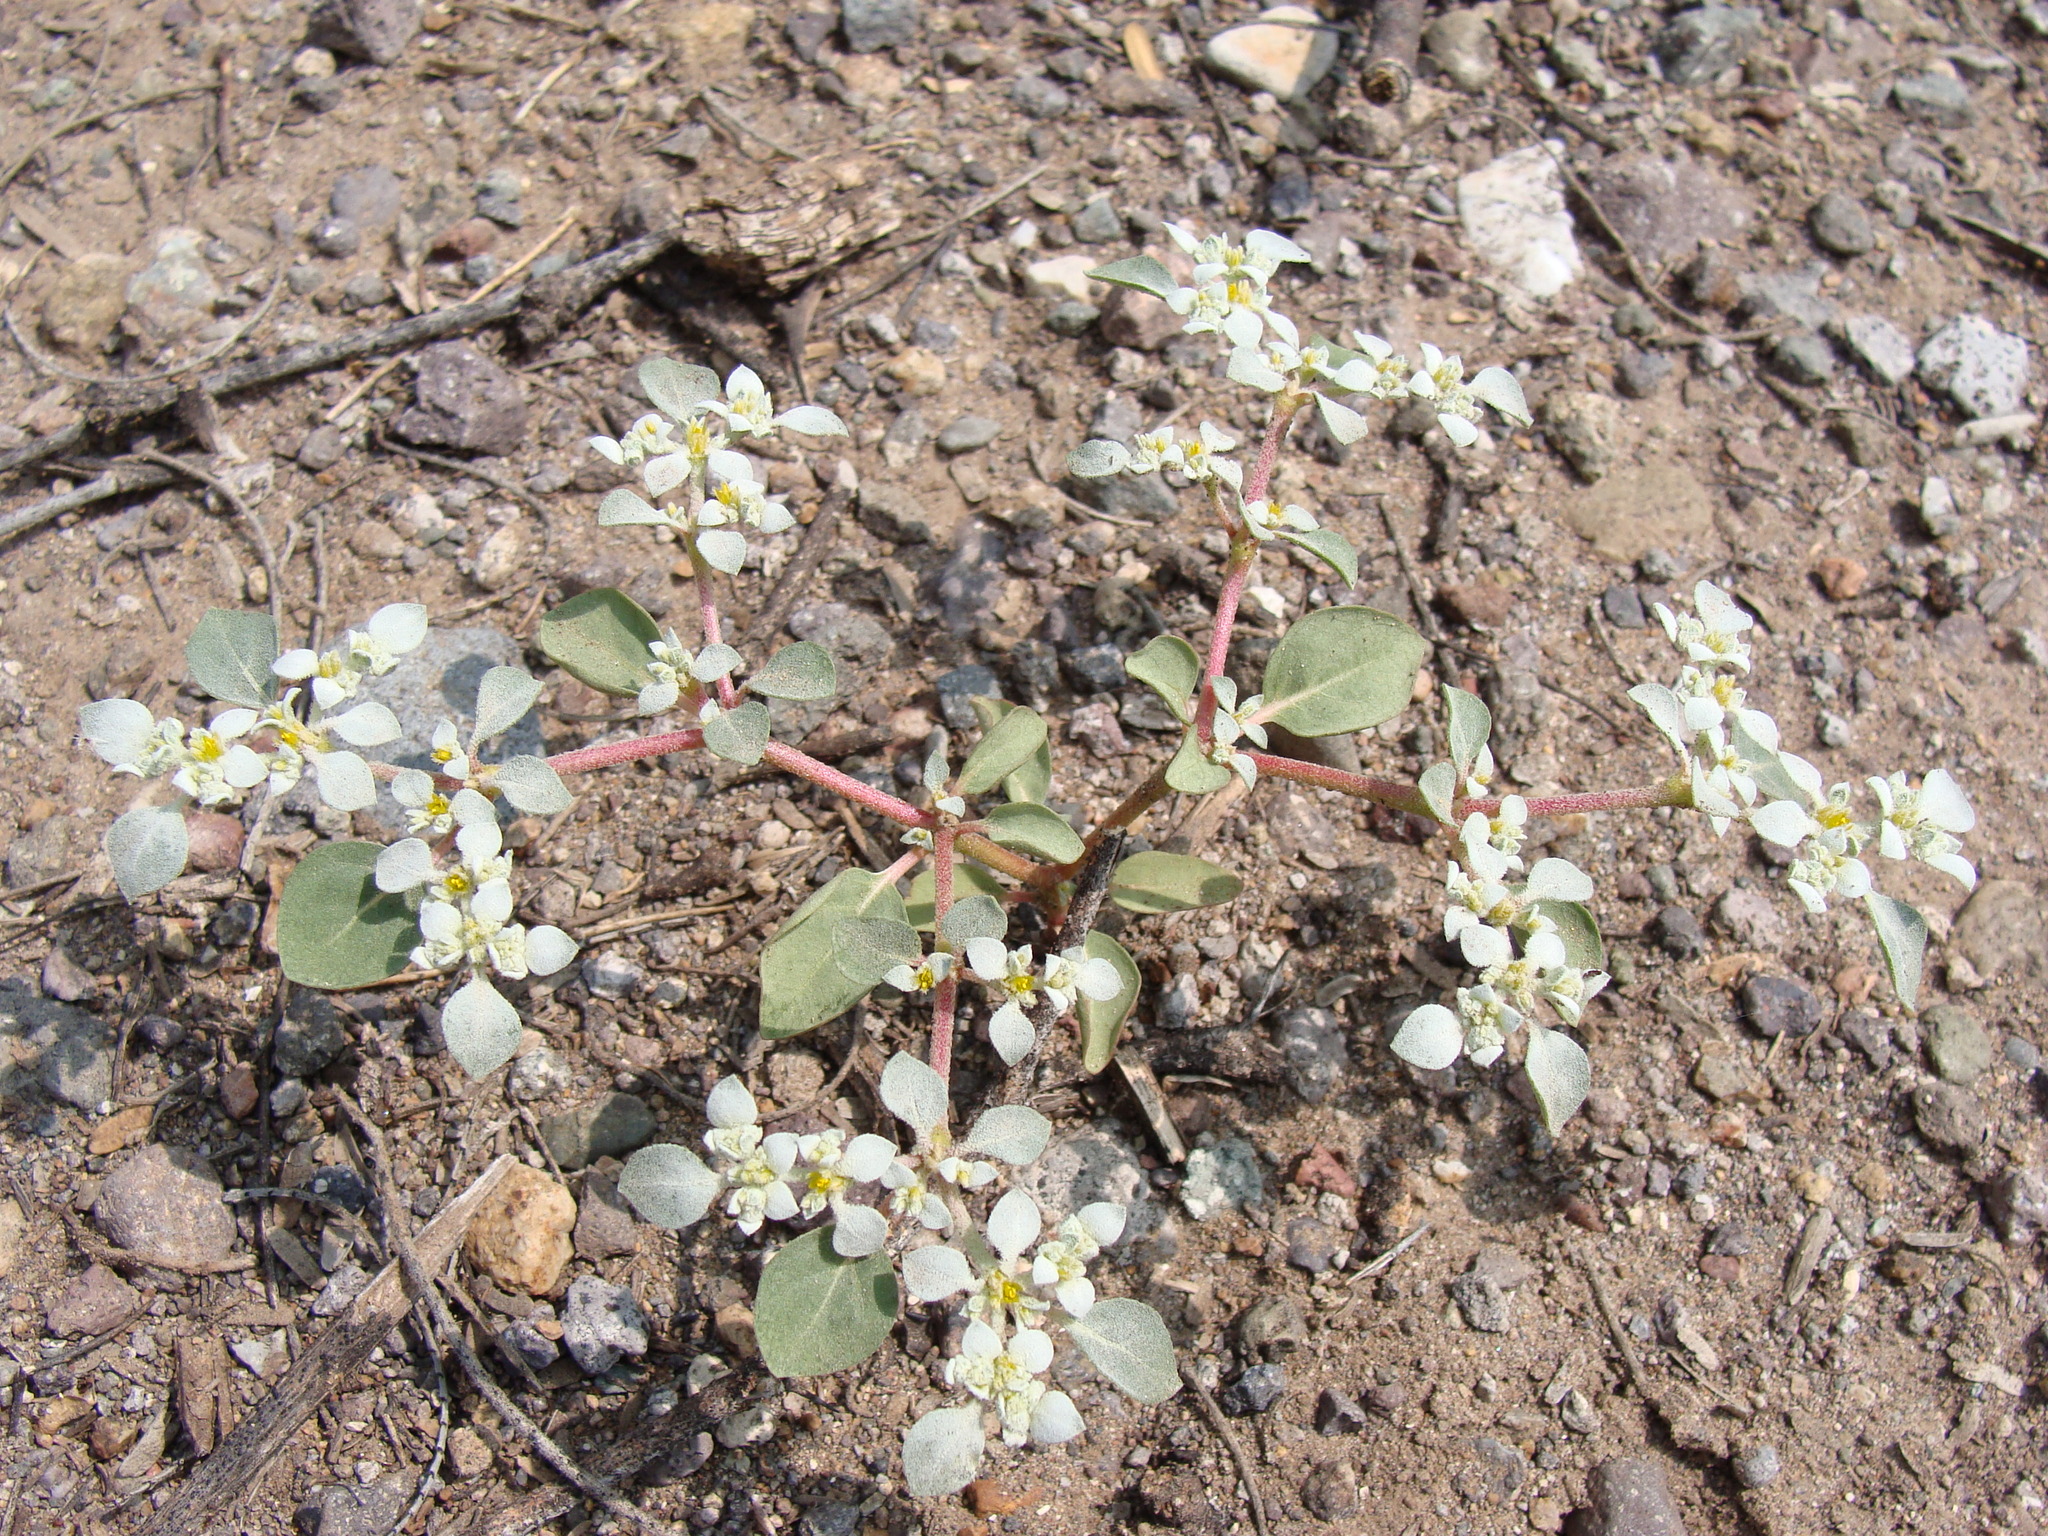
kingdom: Plantae
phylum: Tracheophyta
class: Magnoliopsida
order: Caryophyllales
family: Amaranthaceae
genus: Tidestromia
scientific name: Tidestromia lanuginosa
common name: Woolly tidestromia
